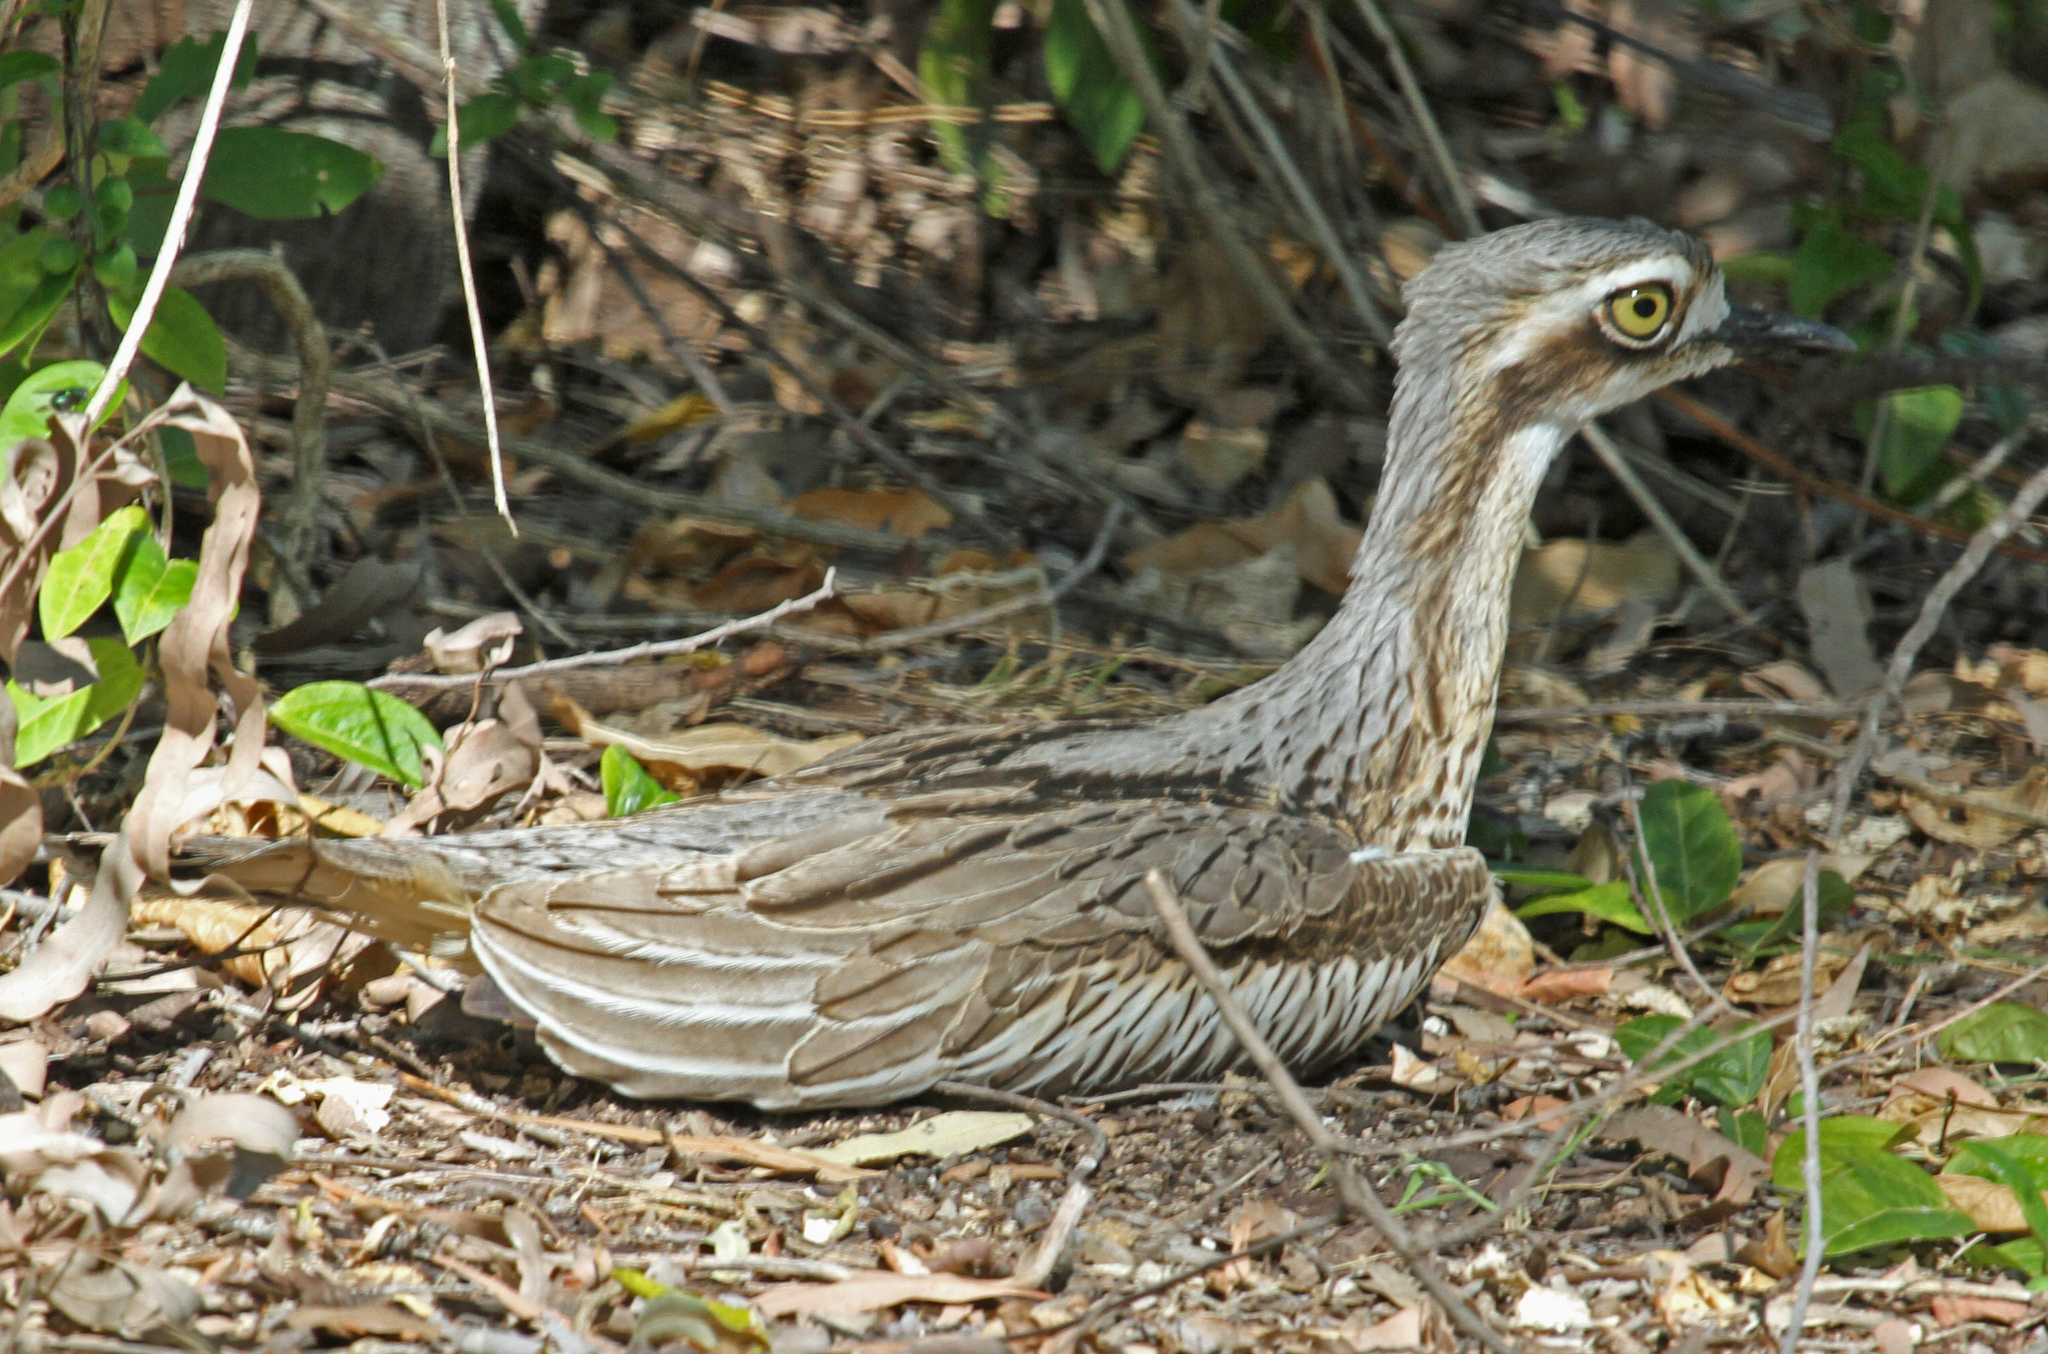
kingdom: Animalia
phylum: Chordata
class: Aves
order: Charadriiformes
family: Burhinidae
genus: Burhinus
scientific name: Burhinus grallarius
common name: Bush stone-curlew
